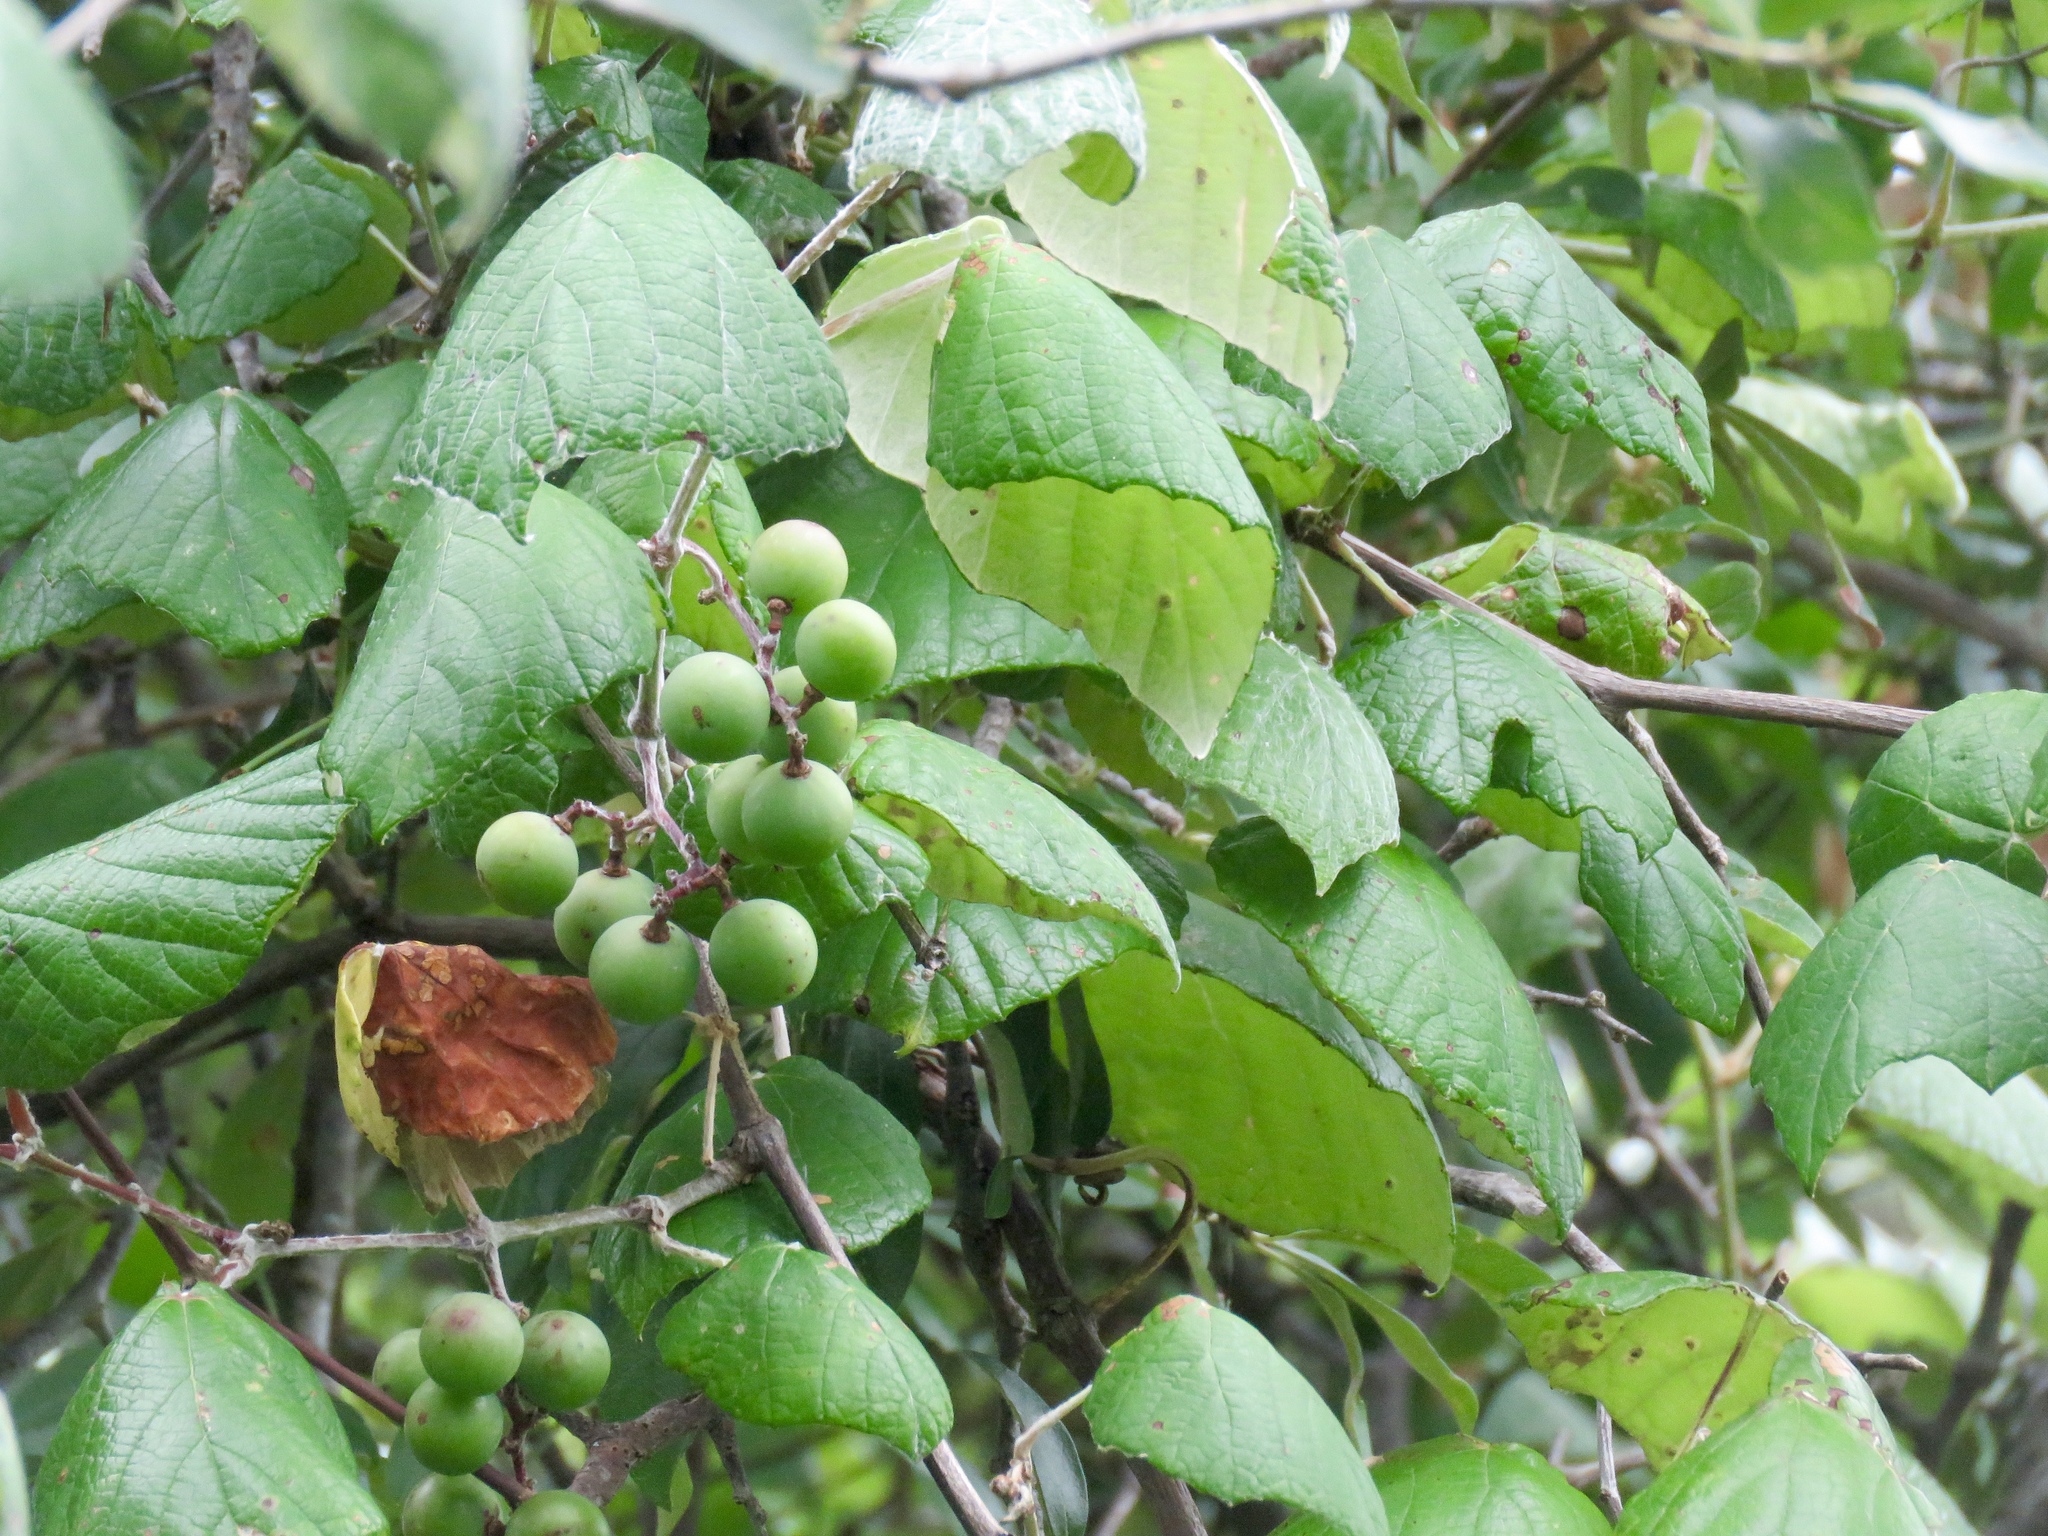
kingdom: Plantae
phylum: Tracheophyta
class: Magnoliopsida
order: Vitales
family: Vitaceae
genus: Vitis
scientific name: Vitis mustangensis
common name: Mustang grape
